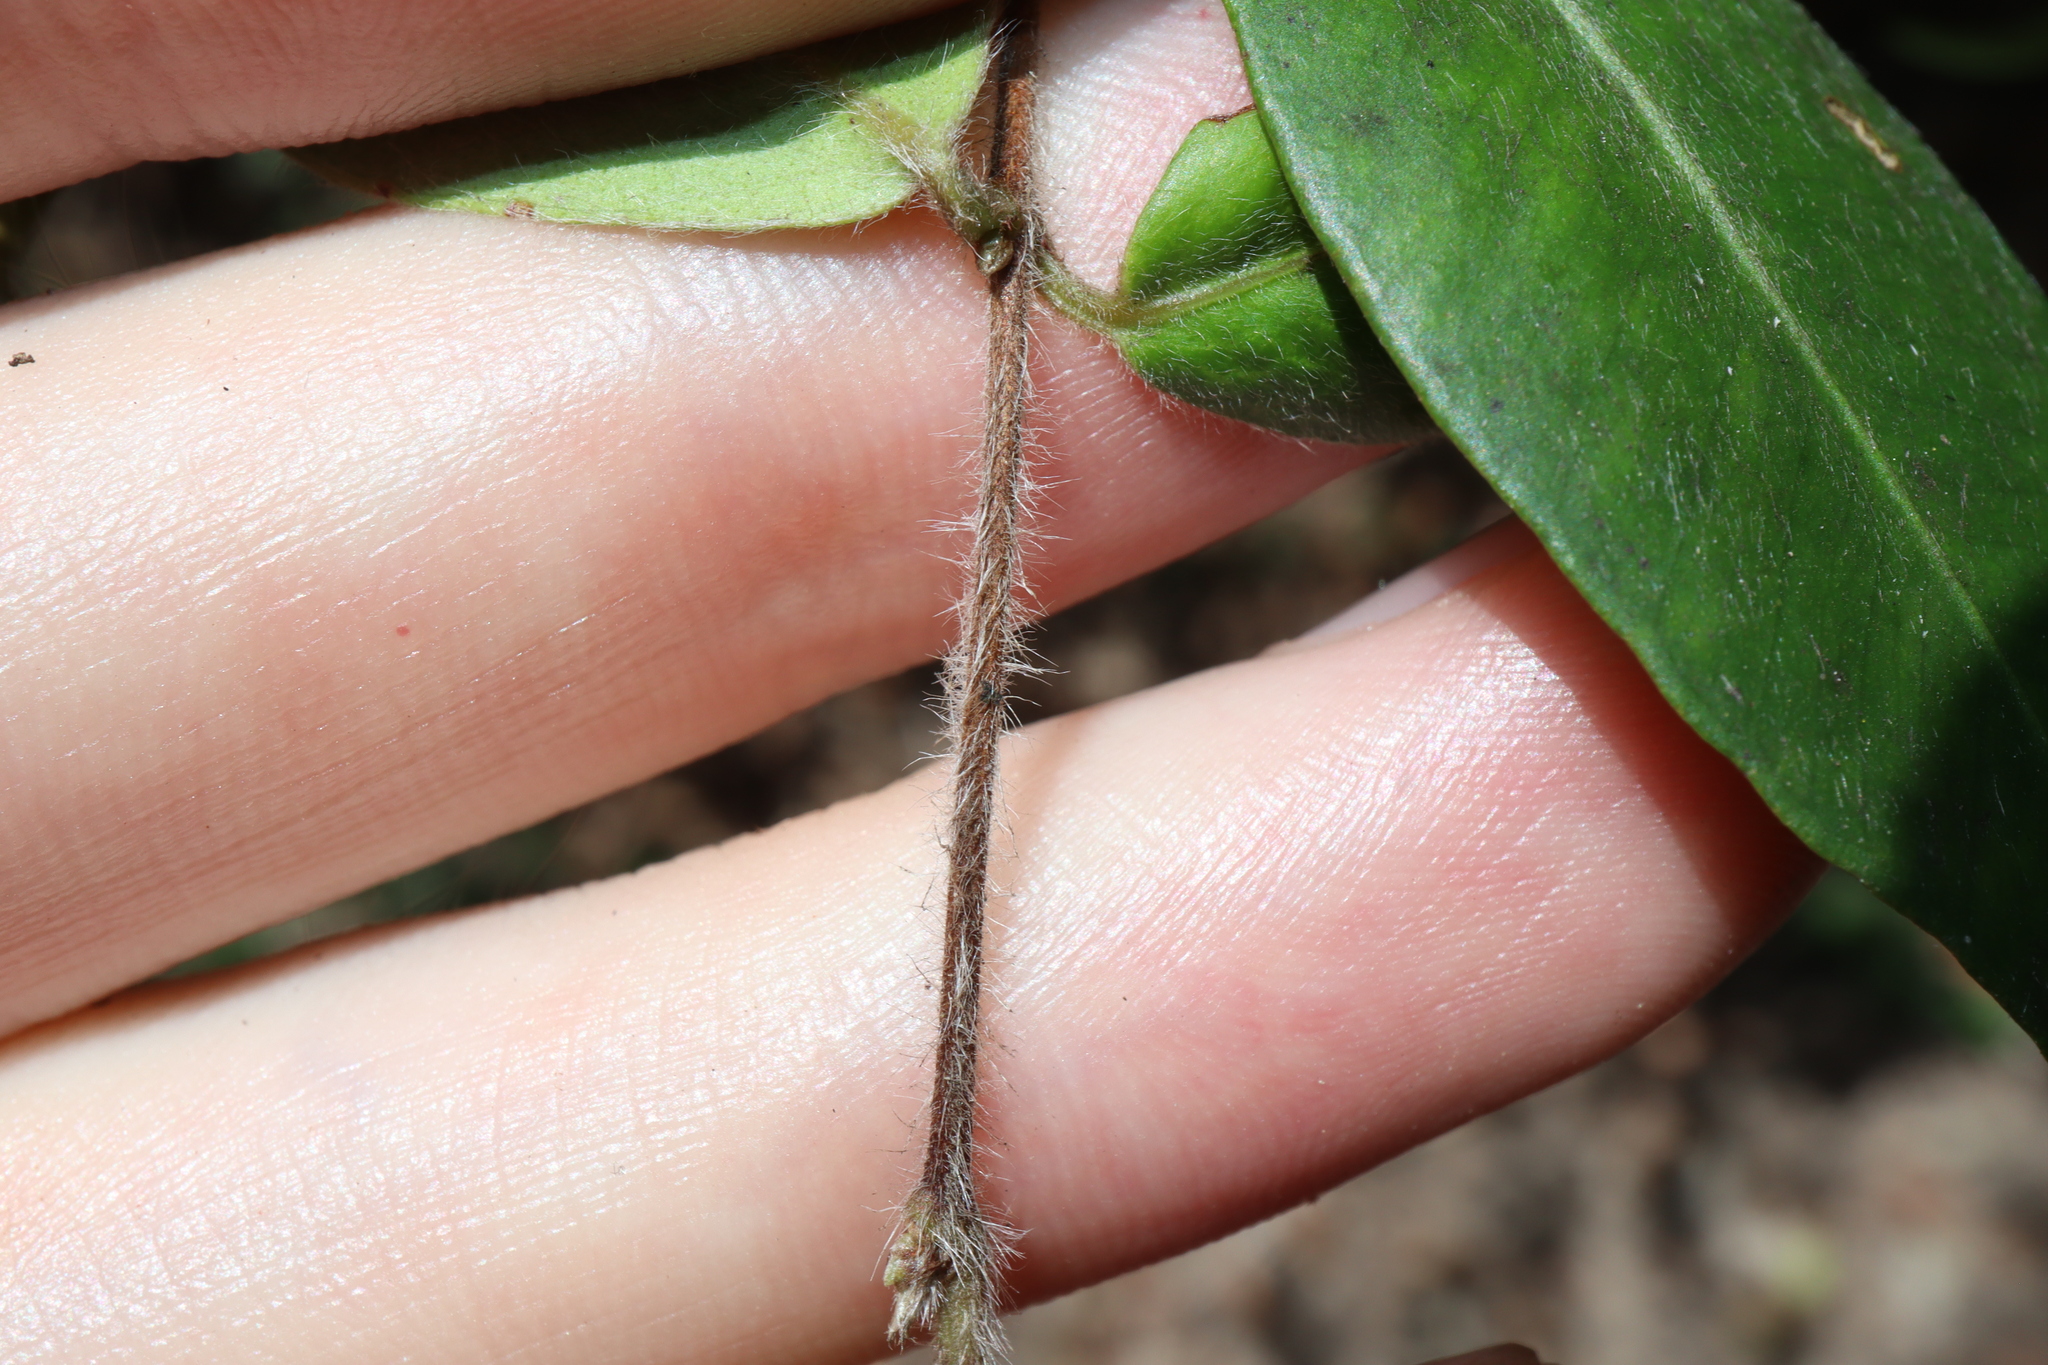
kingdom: Plantae
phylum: Tracheophyta
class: Magnoliopsida
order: Myrtales
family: Myrtaceae
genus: Backhousia
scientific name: Backhousia myrtifolia
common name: Carrol
